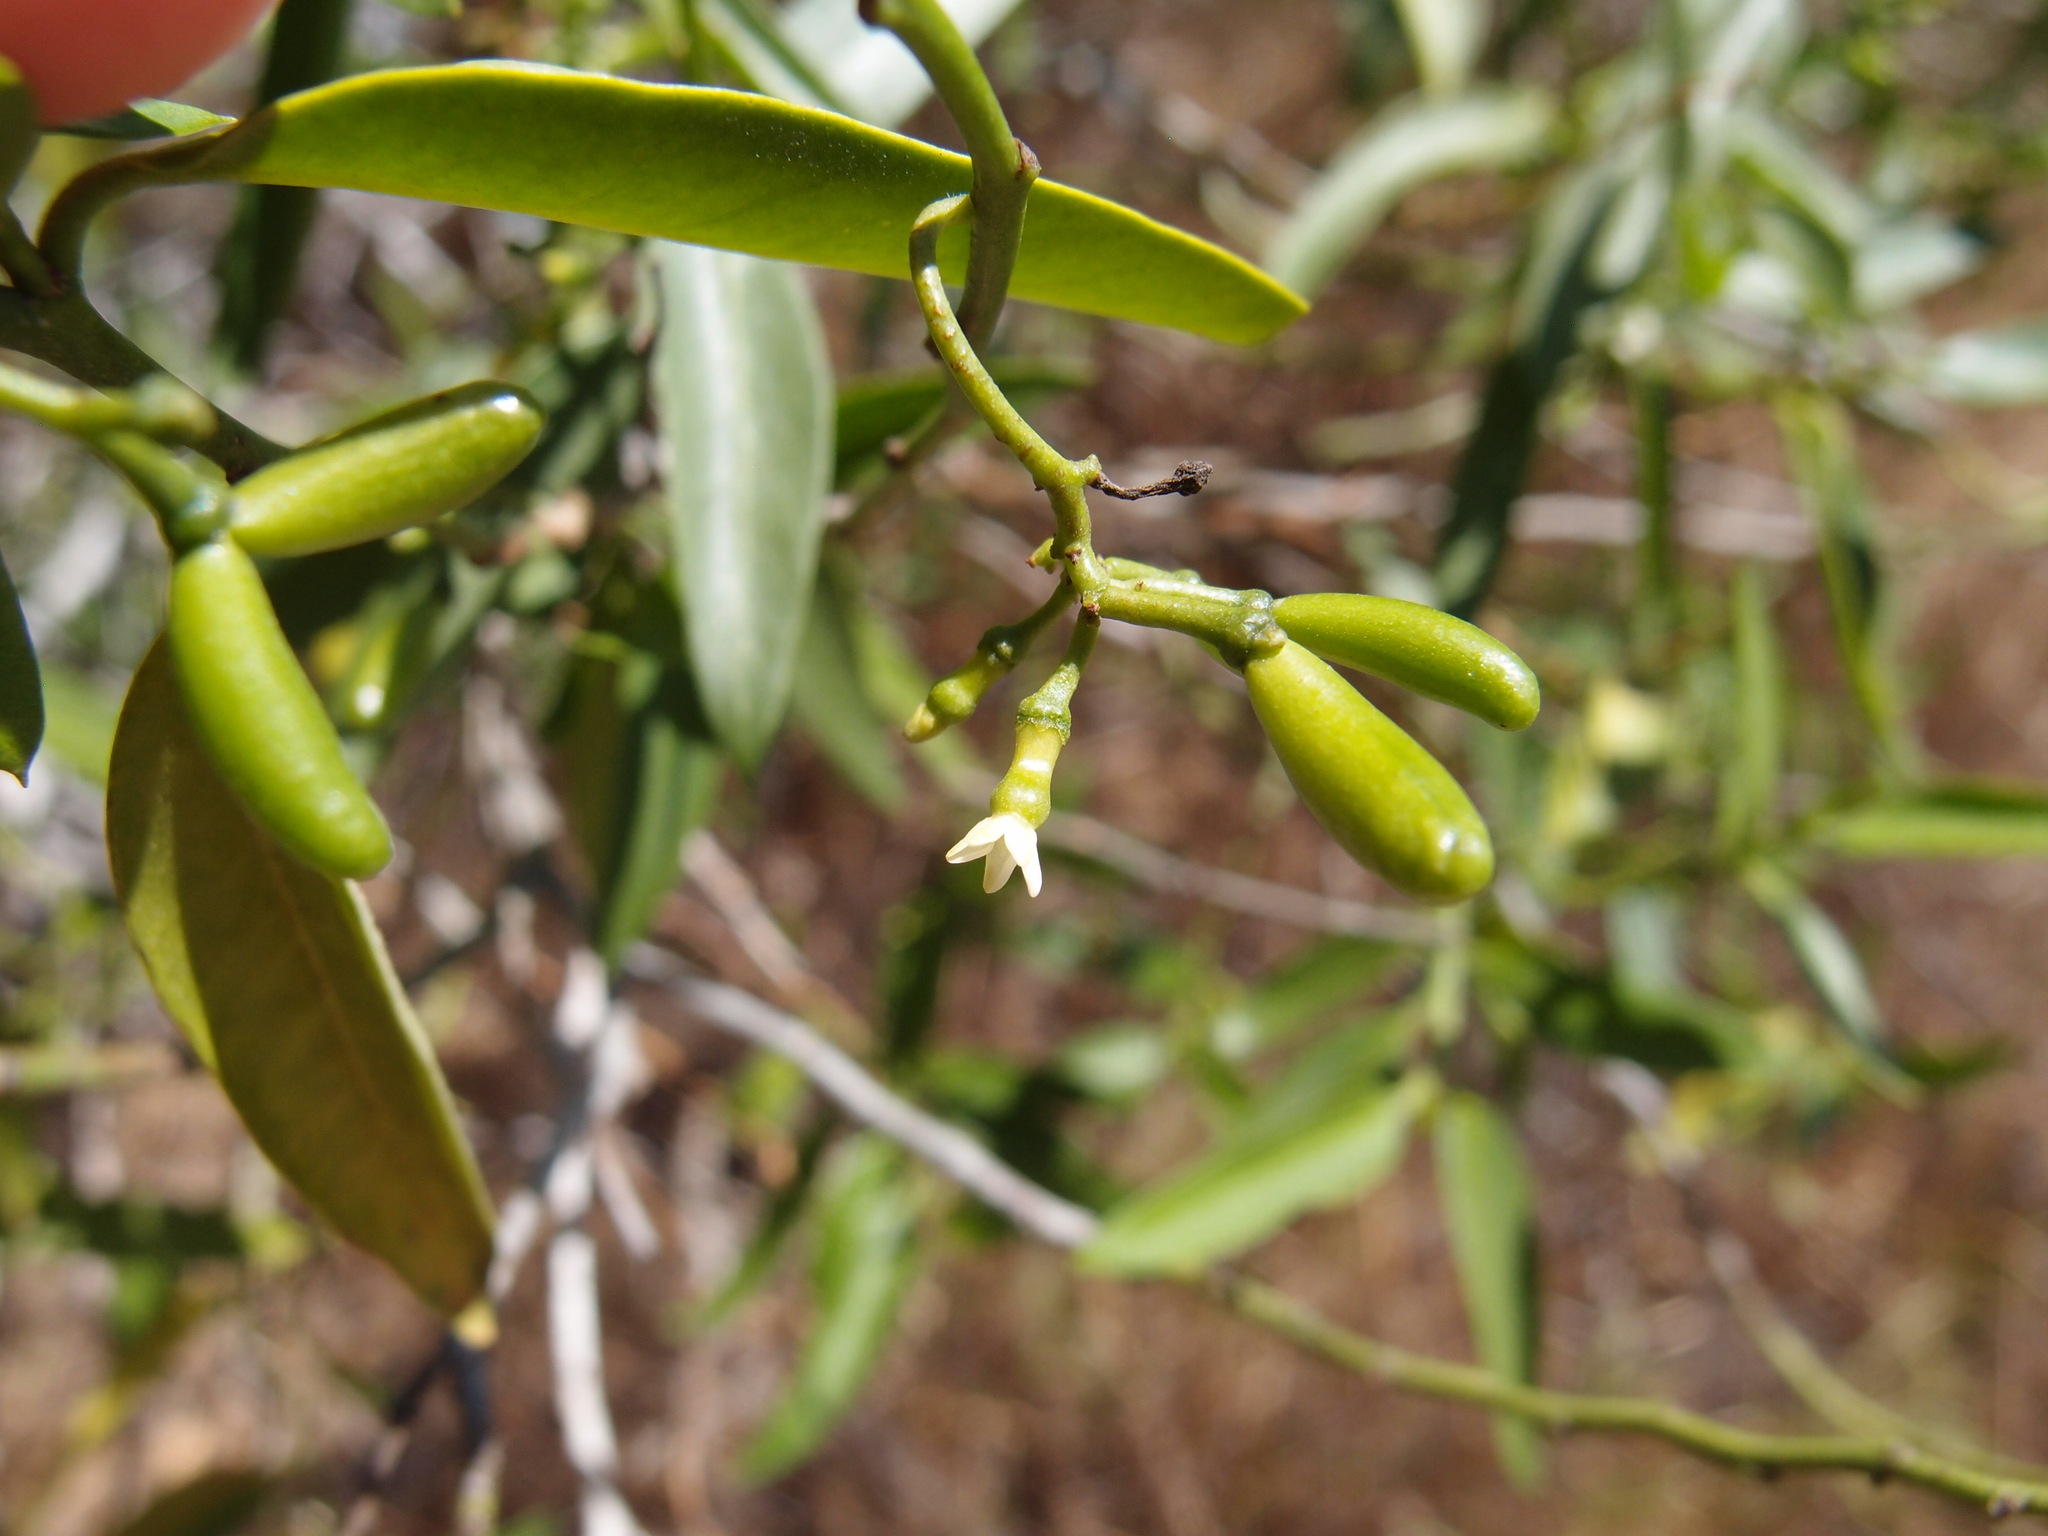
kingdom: Plantae
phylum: Tracheophyta
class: Magnoliopsida
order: Gentianales
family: Apocynaceae
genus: Vallesia
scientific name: Vallesia glabra
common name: Pearlberry
